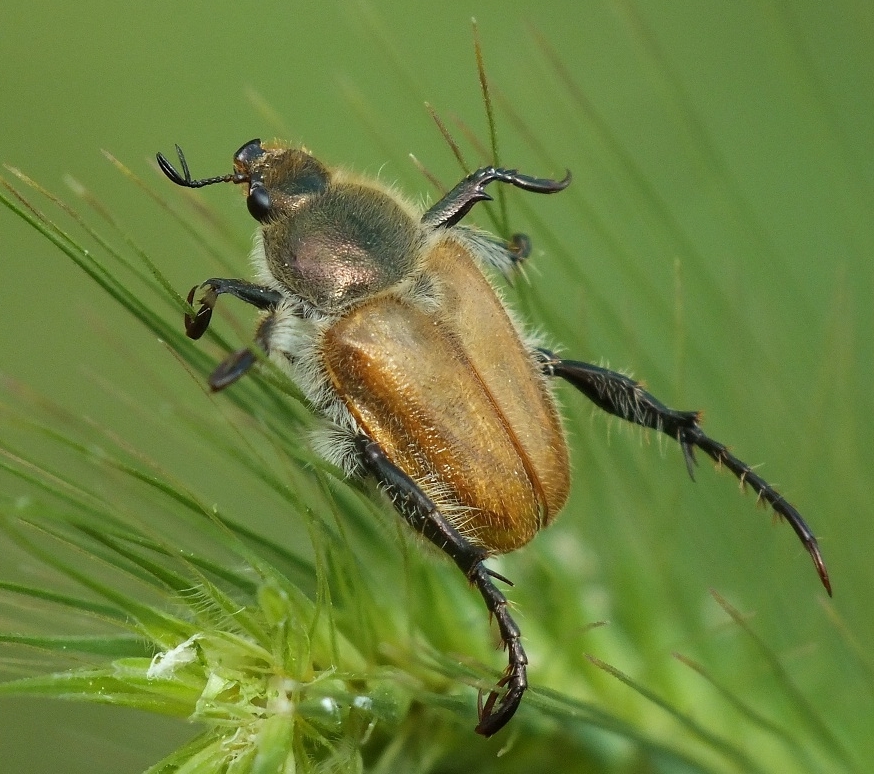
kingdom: Animalia
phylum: Arthropoda
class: Insecta
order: Coleoptera
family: Scarabaeidae
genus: Chaetopteroplia
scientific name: Chaetopteroplia segetum
